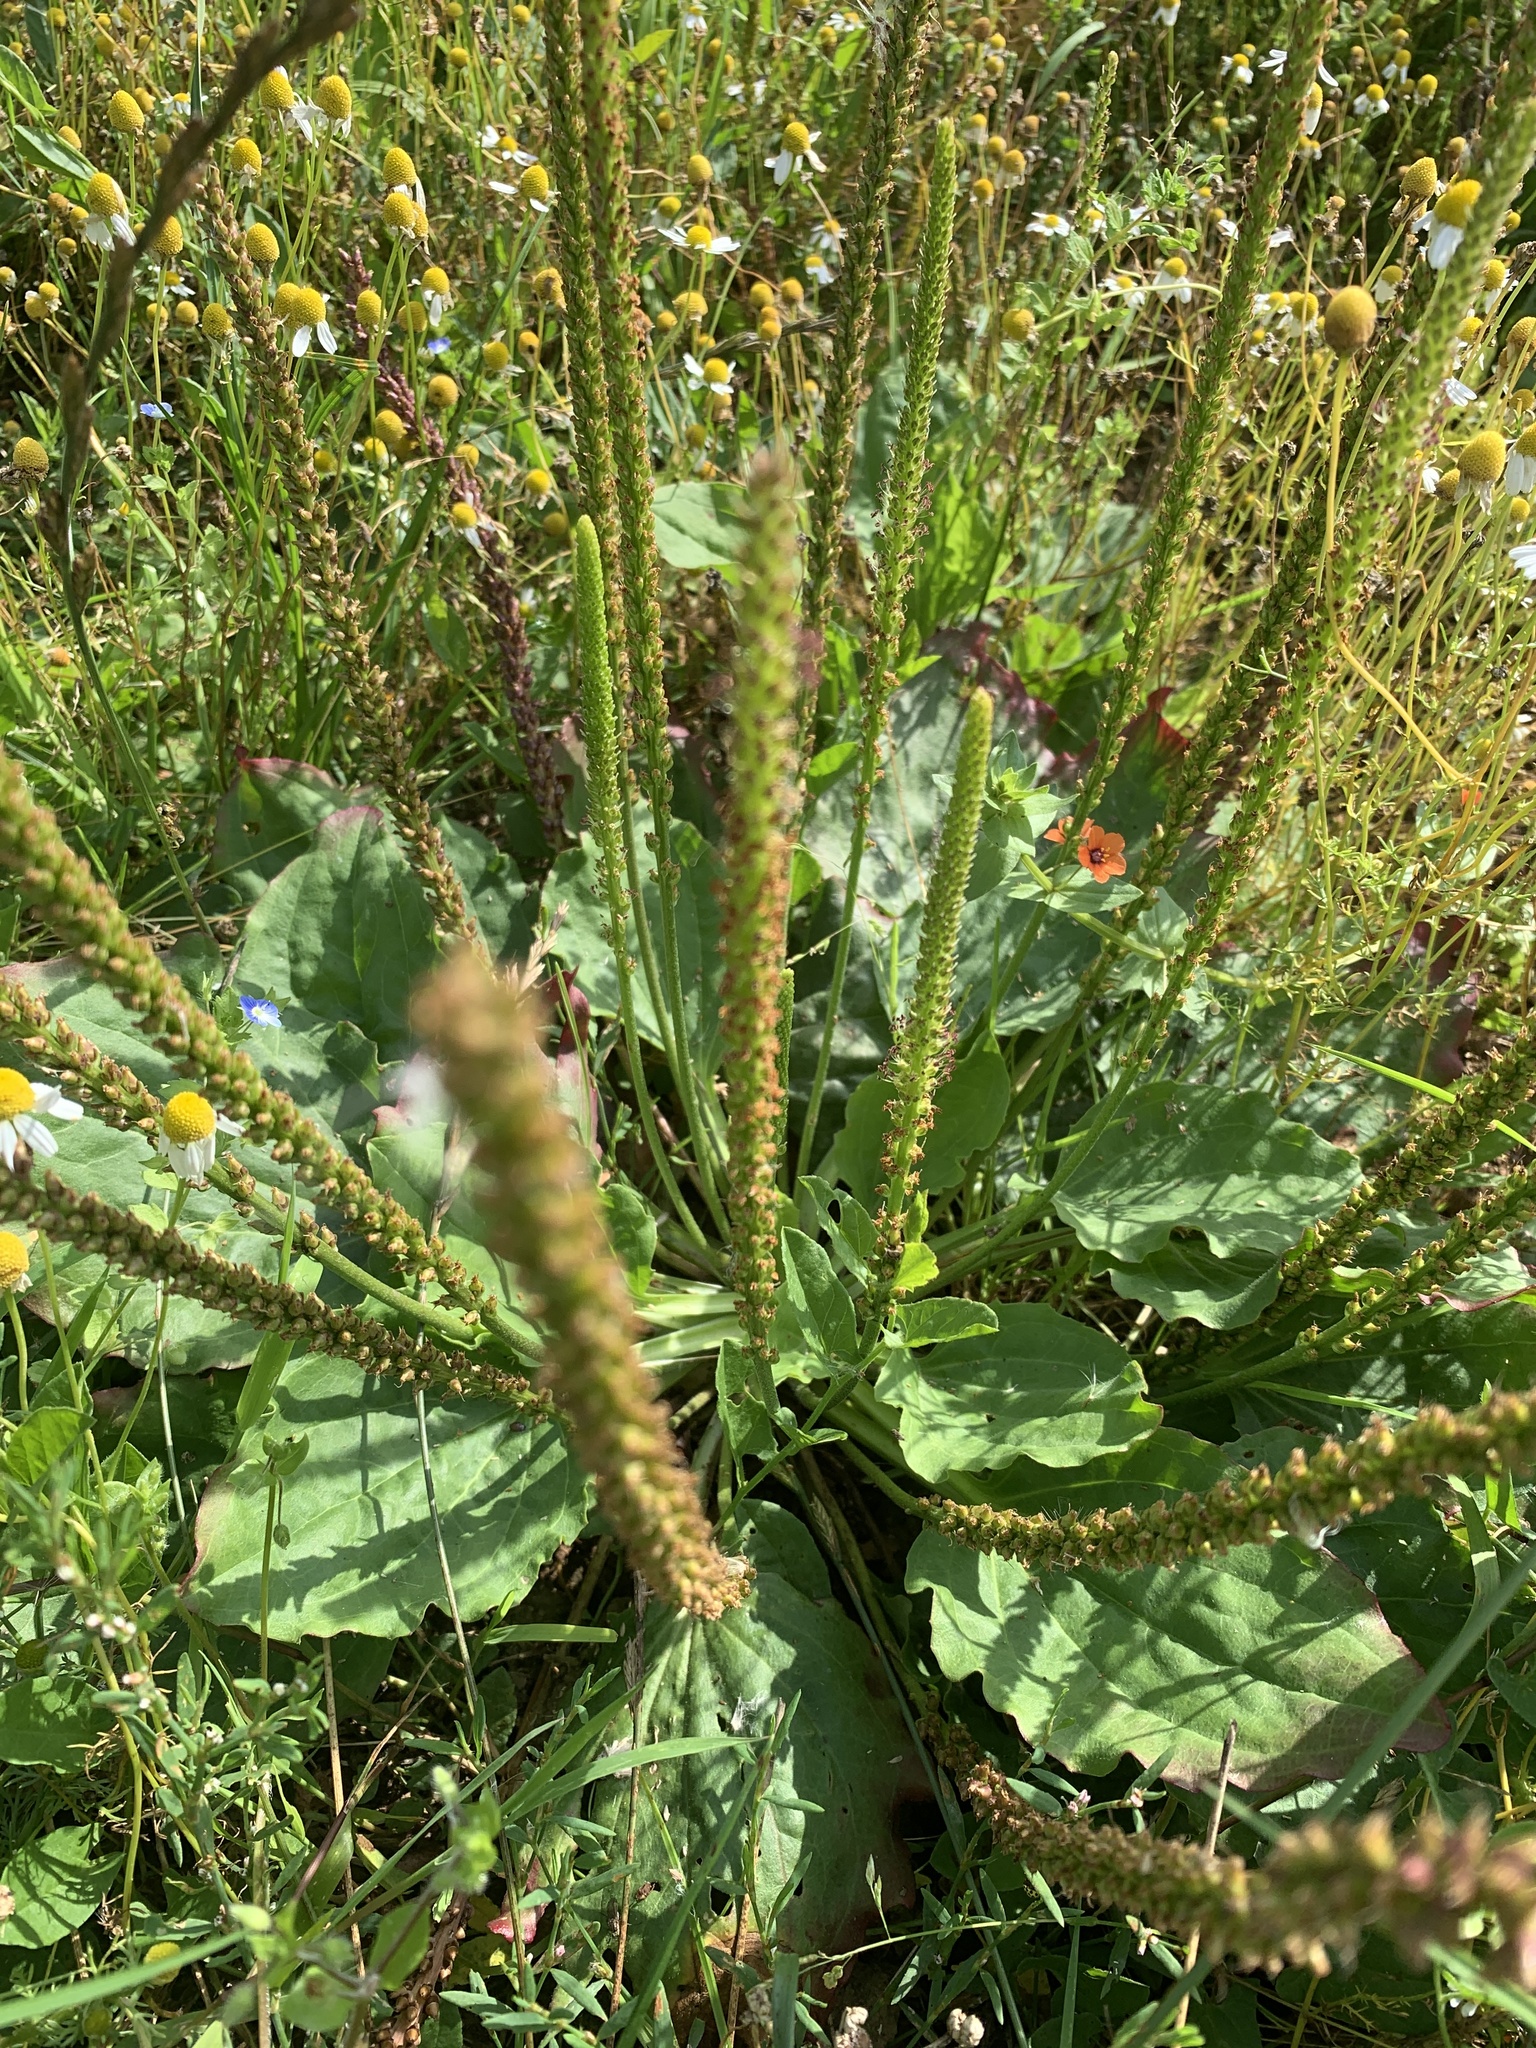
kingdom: Plantae
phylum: Tracheophyta
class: Magnoliopsida
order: Lamiales
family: Plantaginaceae
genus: Plantago
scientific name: Plantago major
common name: Common plantain
